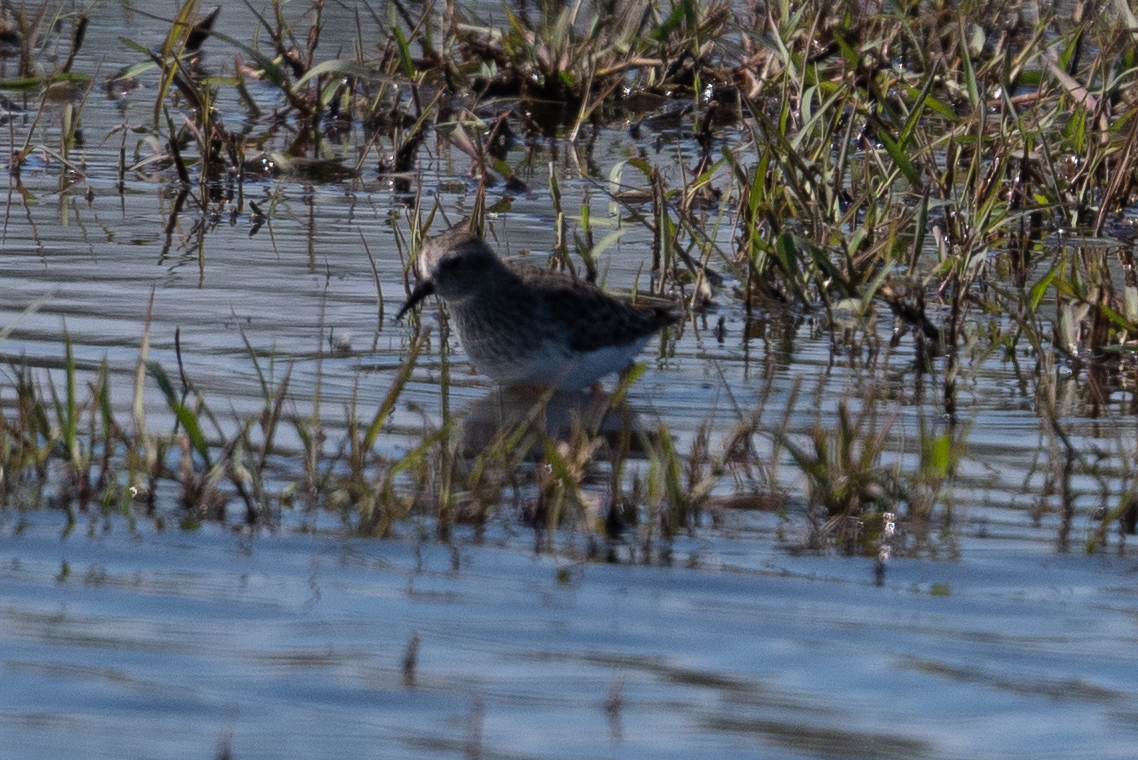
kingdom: Animalia
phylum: Chordata
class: Aves
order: Charadriiformes
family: Scolopacidae
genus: Calidris
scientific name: Calidris minutilla
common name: Least sandpiper
